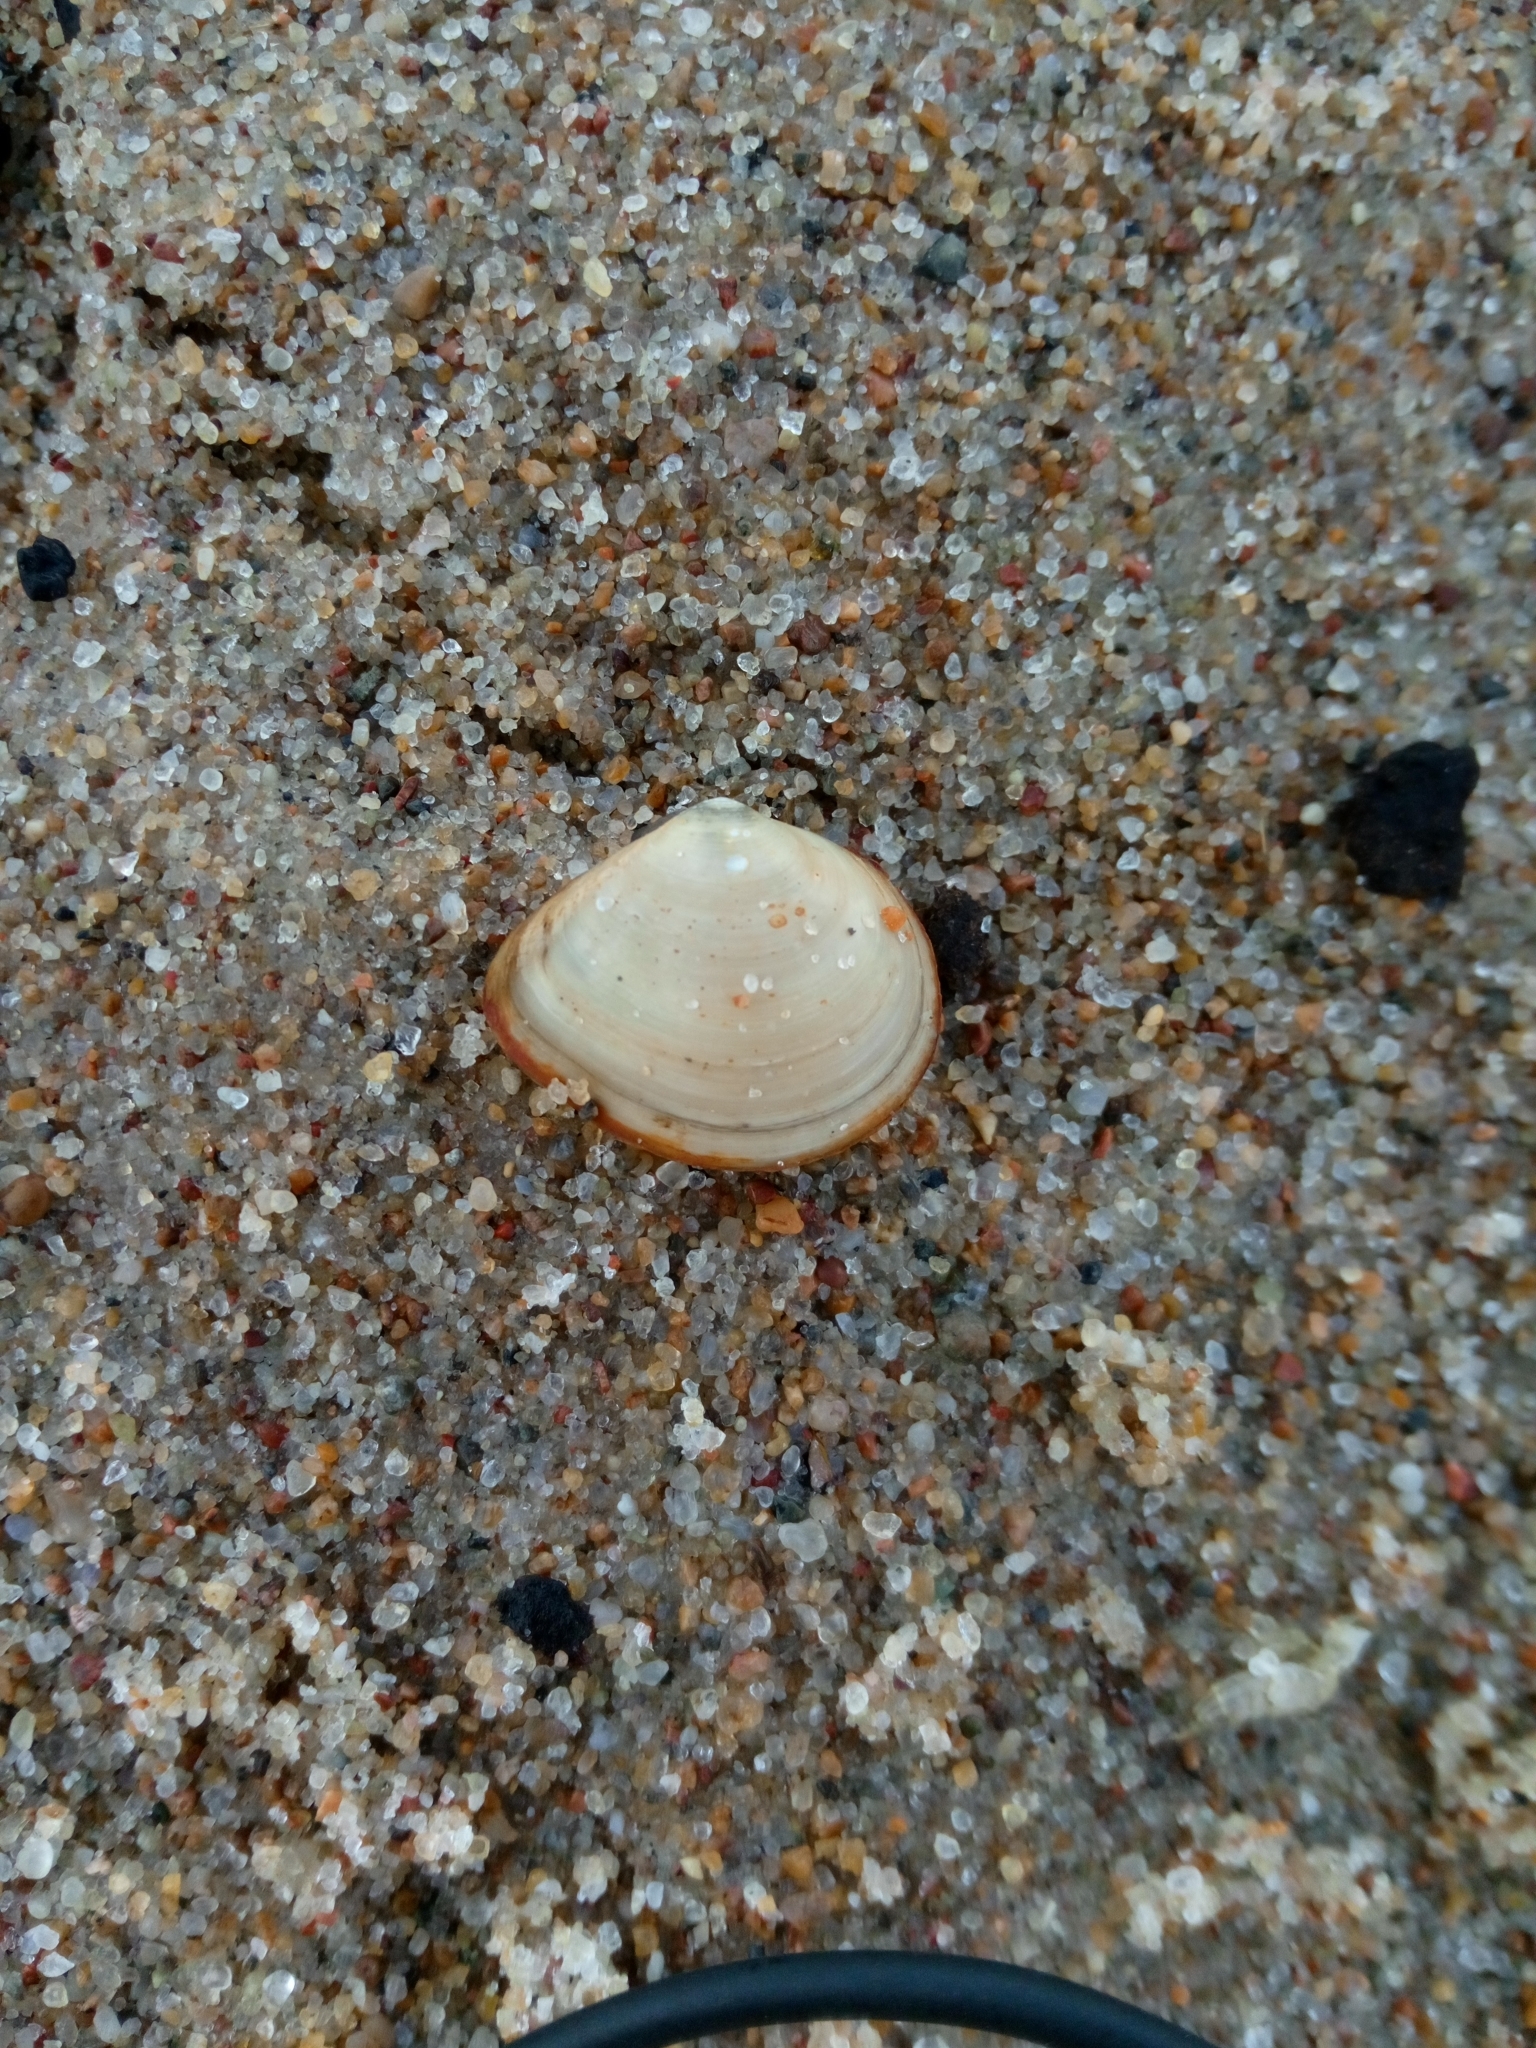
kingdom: Animalia
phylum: Mollusca
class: Bivalvia
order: Cardiida
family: Tellinidae
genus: Macoma
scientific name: Macoma balthica
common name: Baltic tellin
